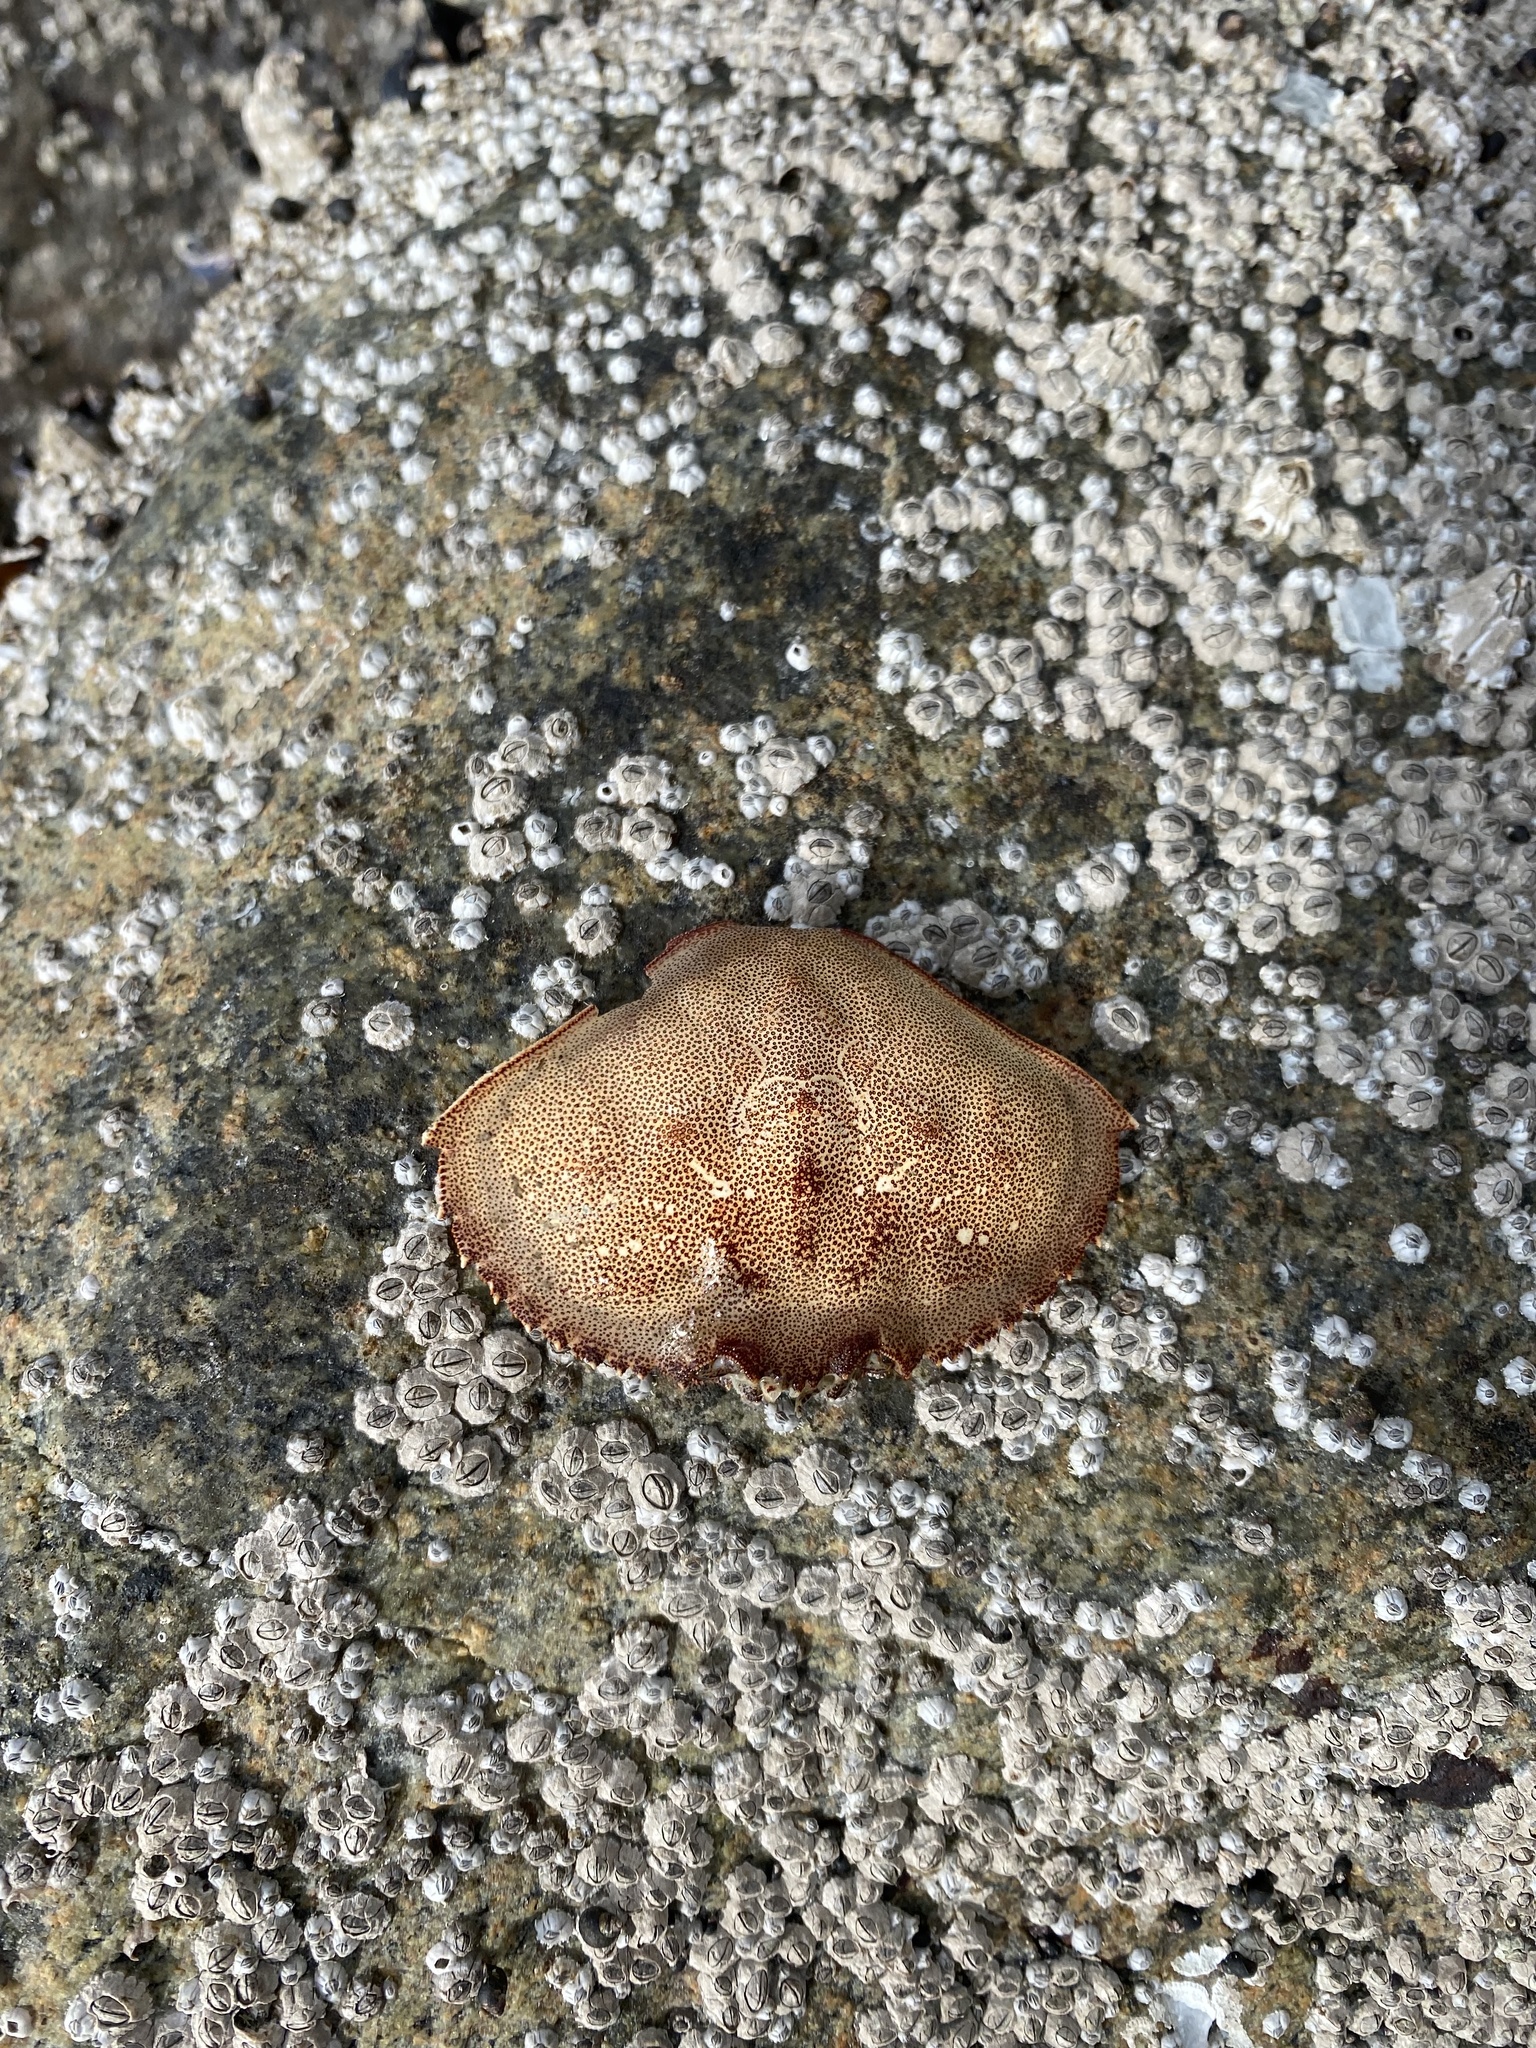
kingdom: Animalia
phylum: Arthropoda
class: Malacostraca
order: Decapoda
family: Cancridae
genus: Metacarcinus
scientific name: Metacarcinus magister
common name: Californian crab
